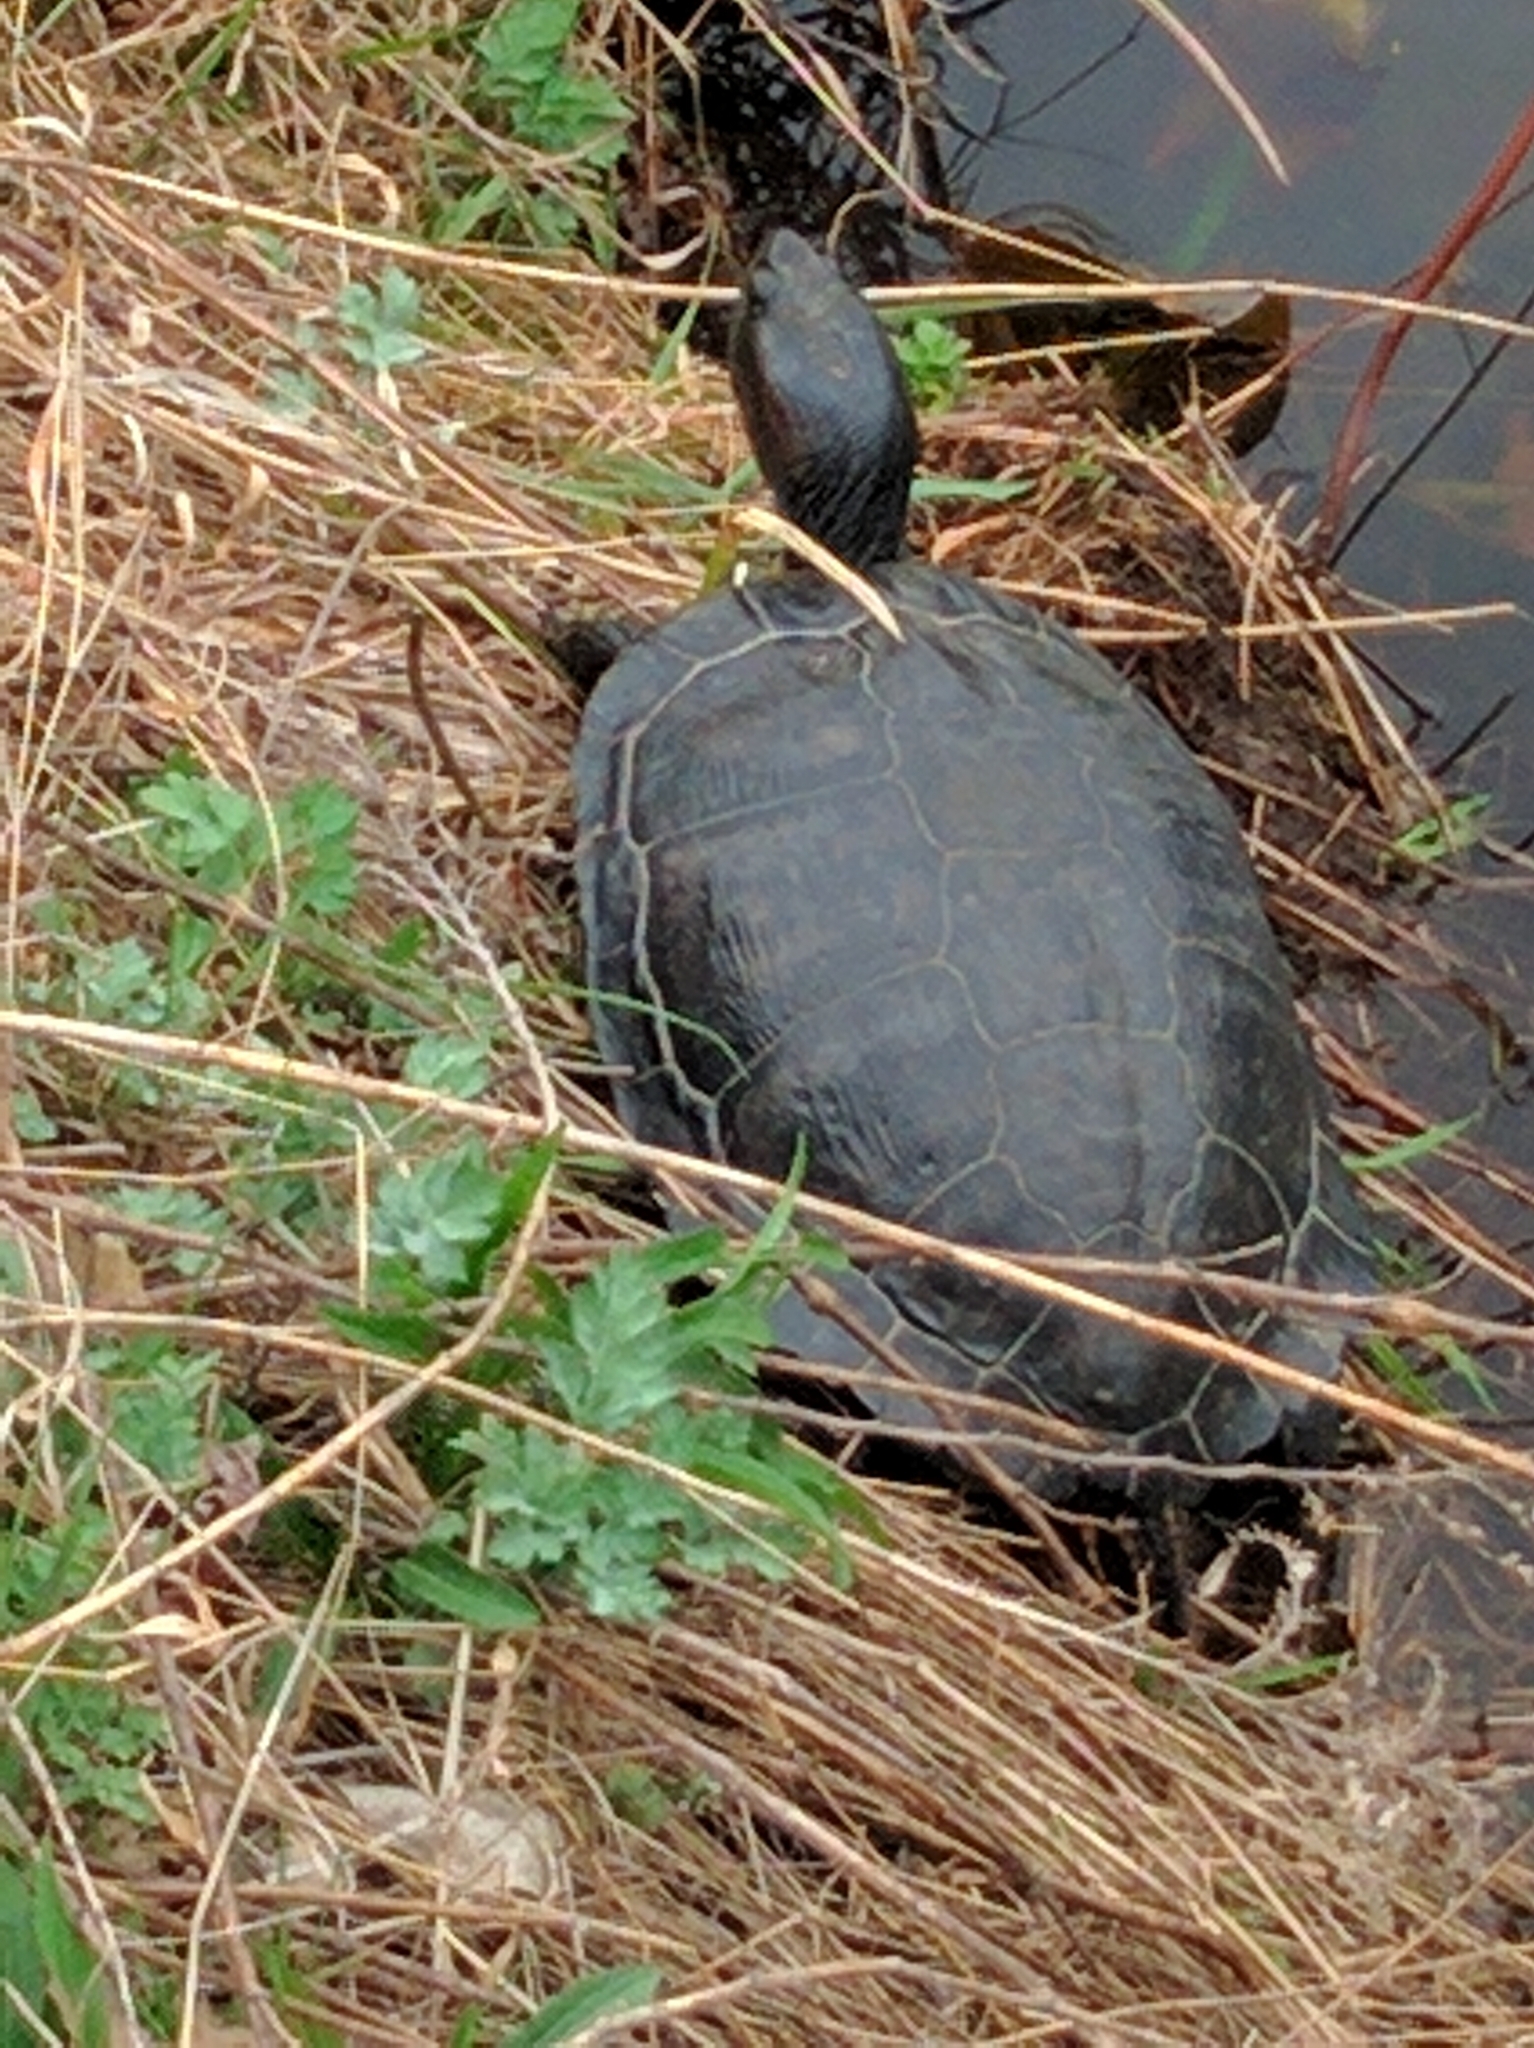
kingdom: Animalia
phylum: Chordata
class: Testudines
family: Emydidae
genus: Trachemys
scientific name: Trachemys scripta
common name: Slider
